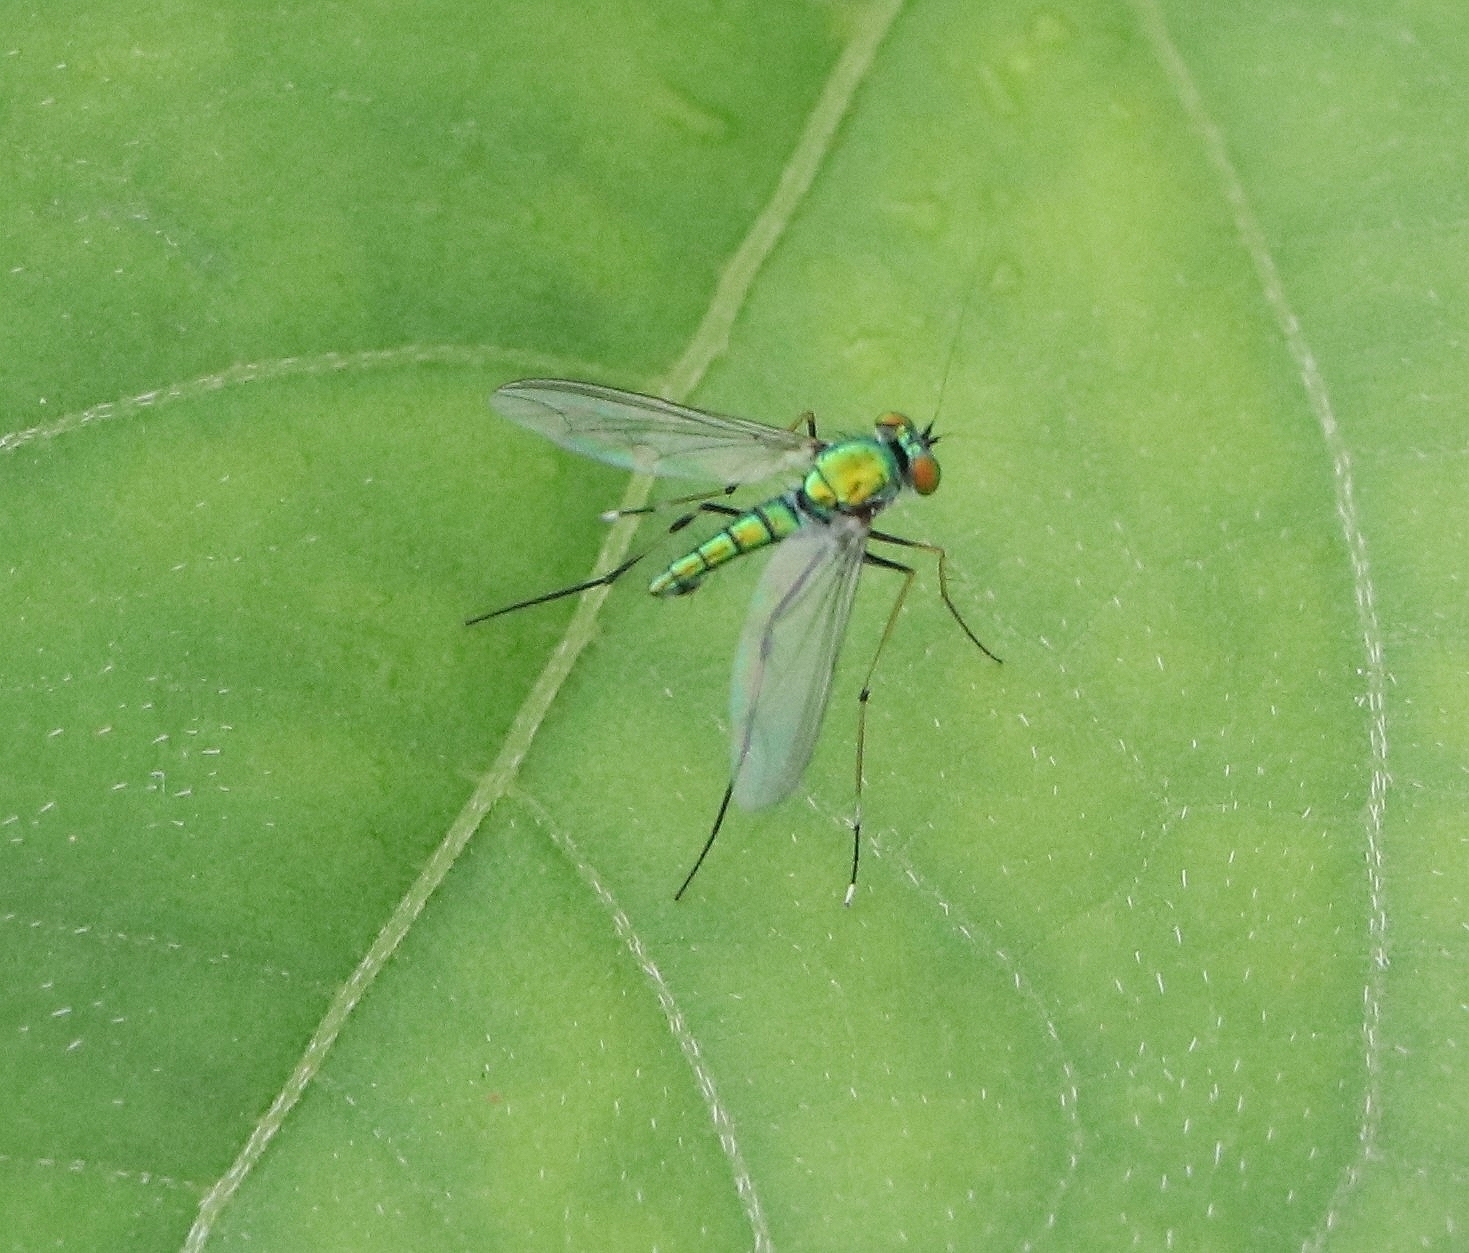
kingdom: Animalia
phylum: Arthropoda
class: Insecta
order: Diptera
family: Dolichopodidae
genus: Chrysosoma
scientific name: Chrysosoma leucopogon
